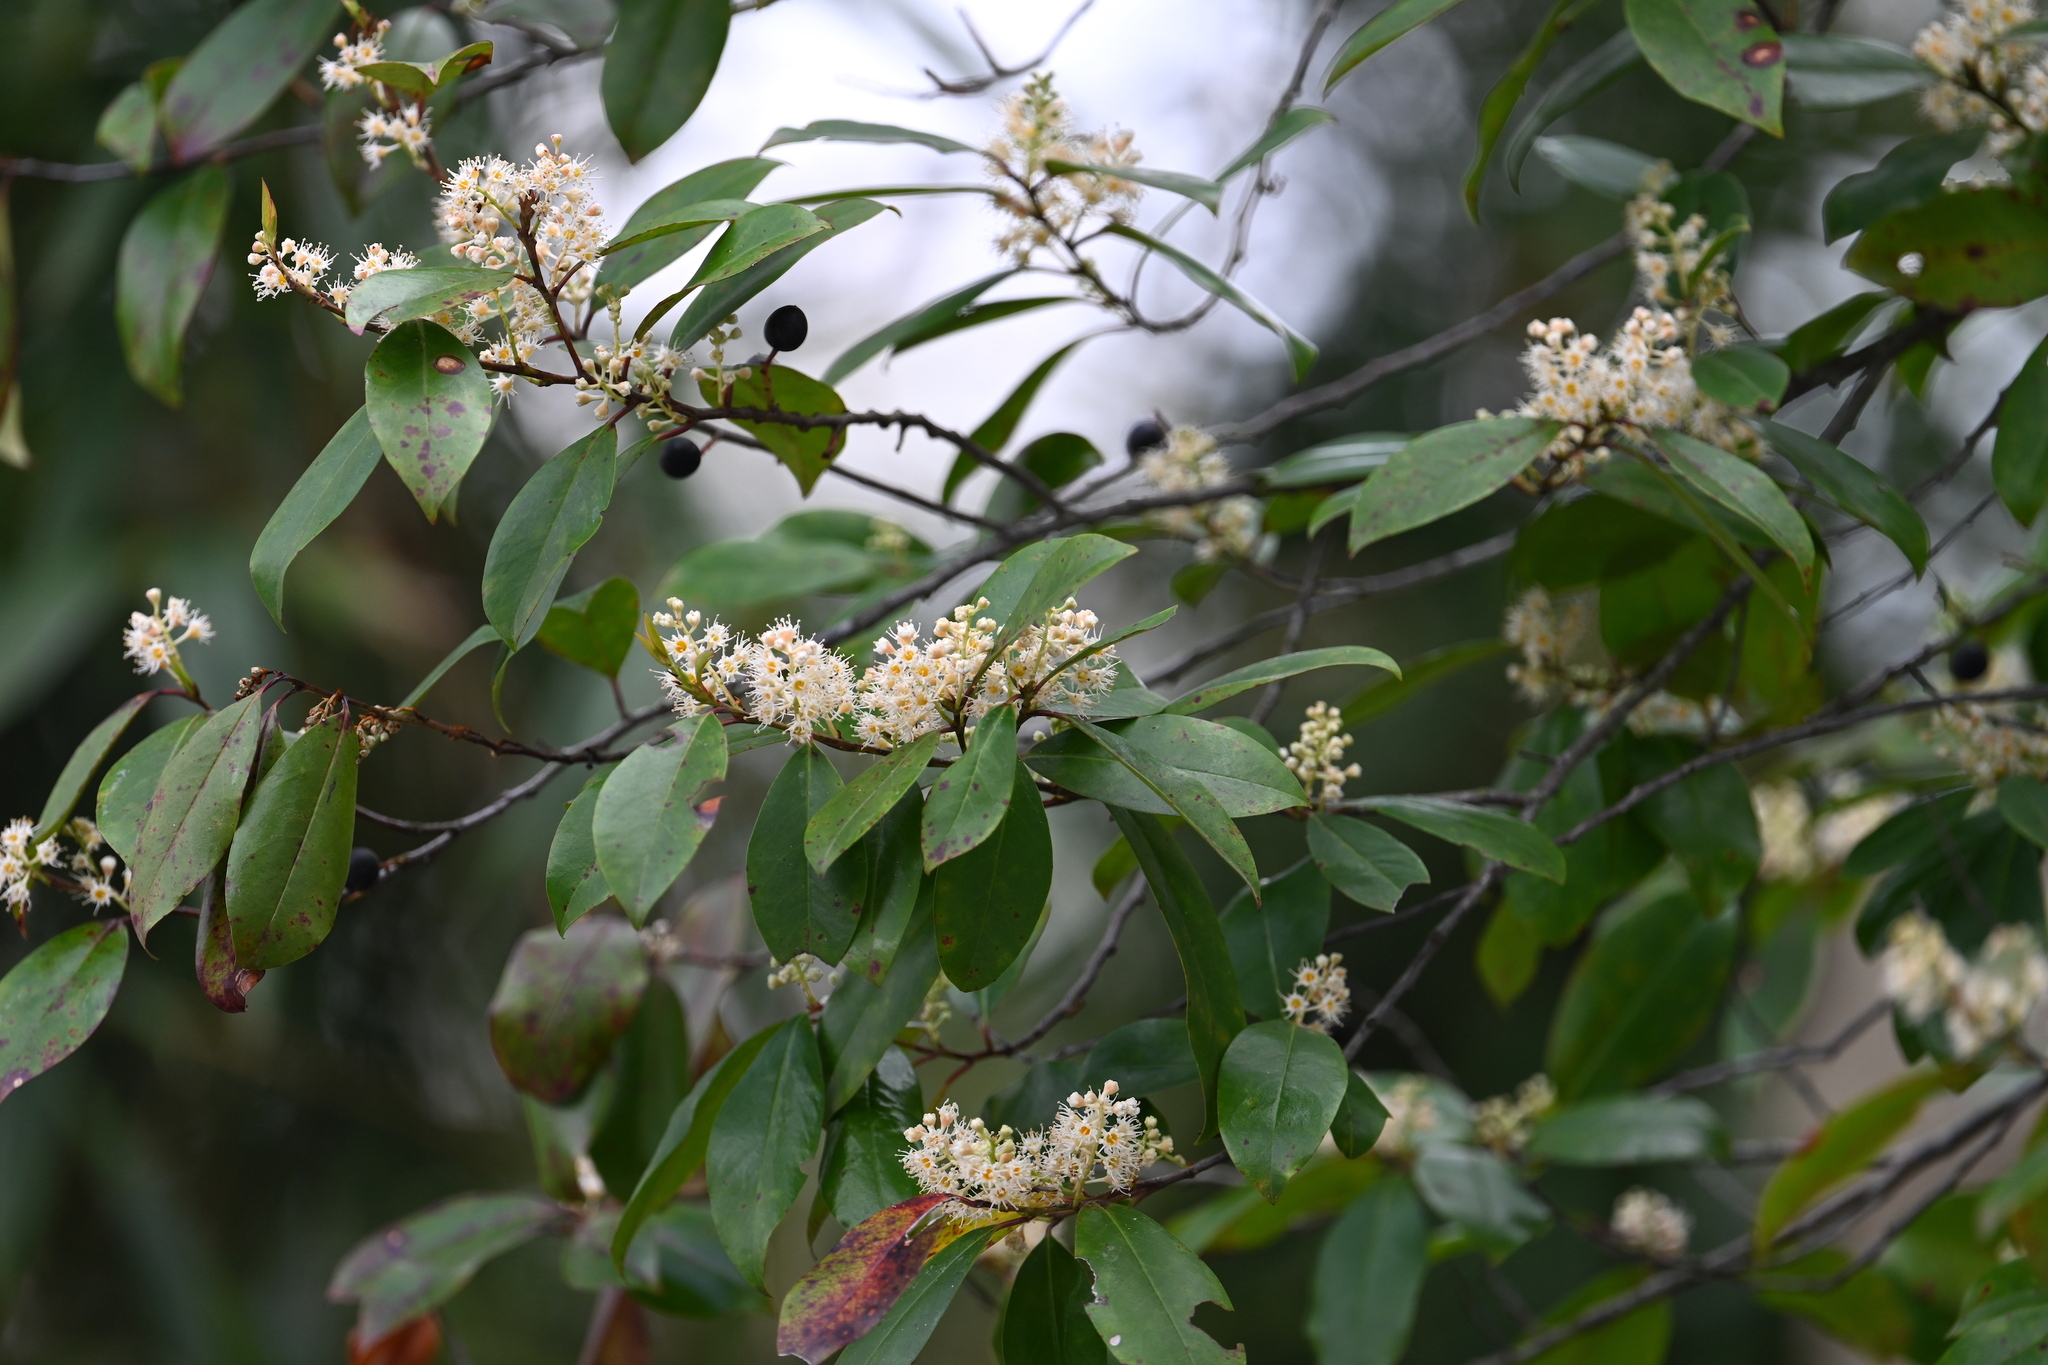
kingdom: Plantae
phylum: Tracheophyta
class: Magnoliopsida
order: Rosales
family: Rosaceae
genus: Prunus
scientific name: Prunus caroliniana
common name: Carolina laurel cherry
